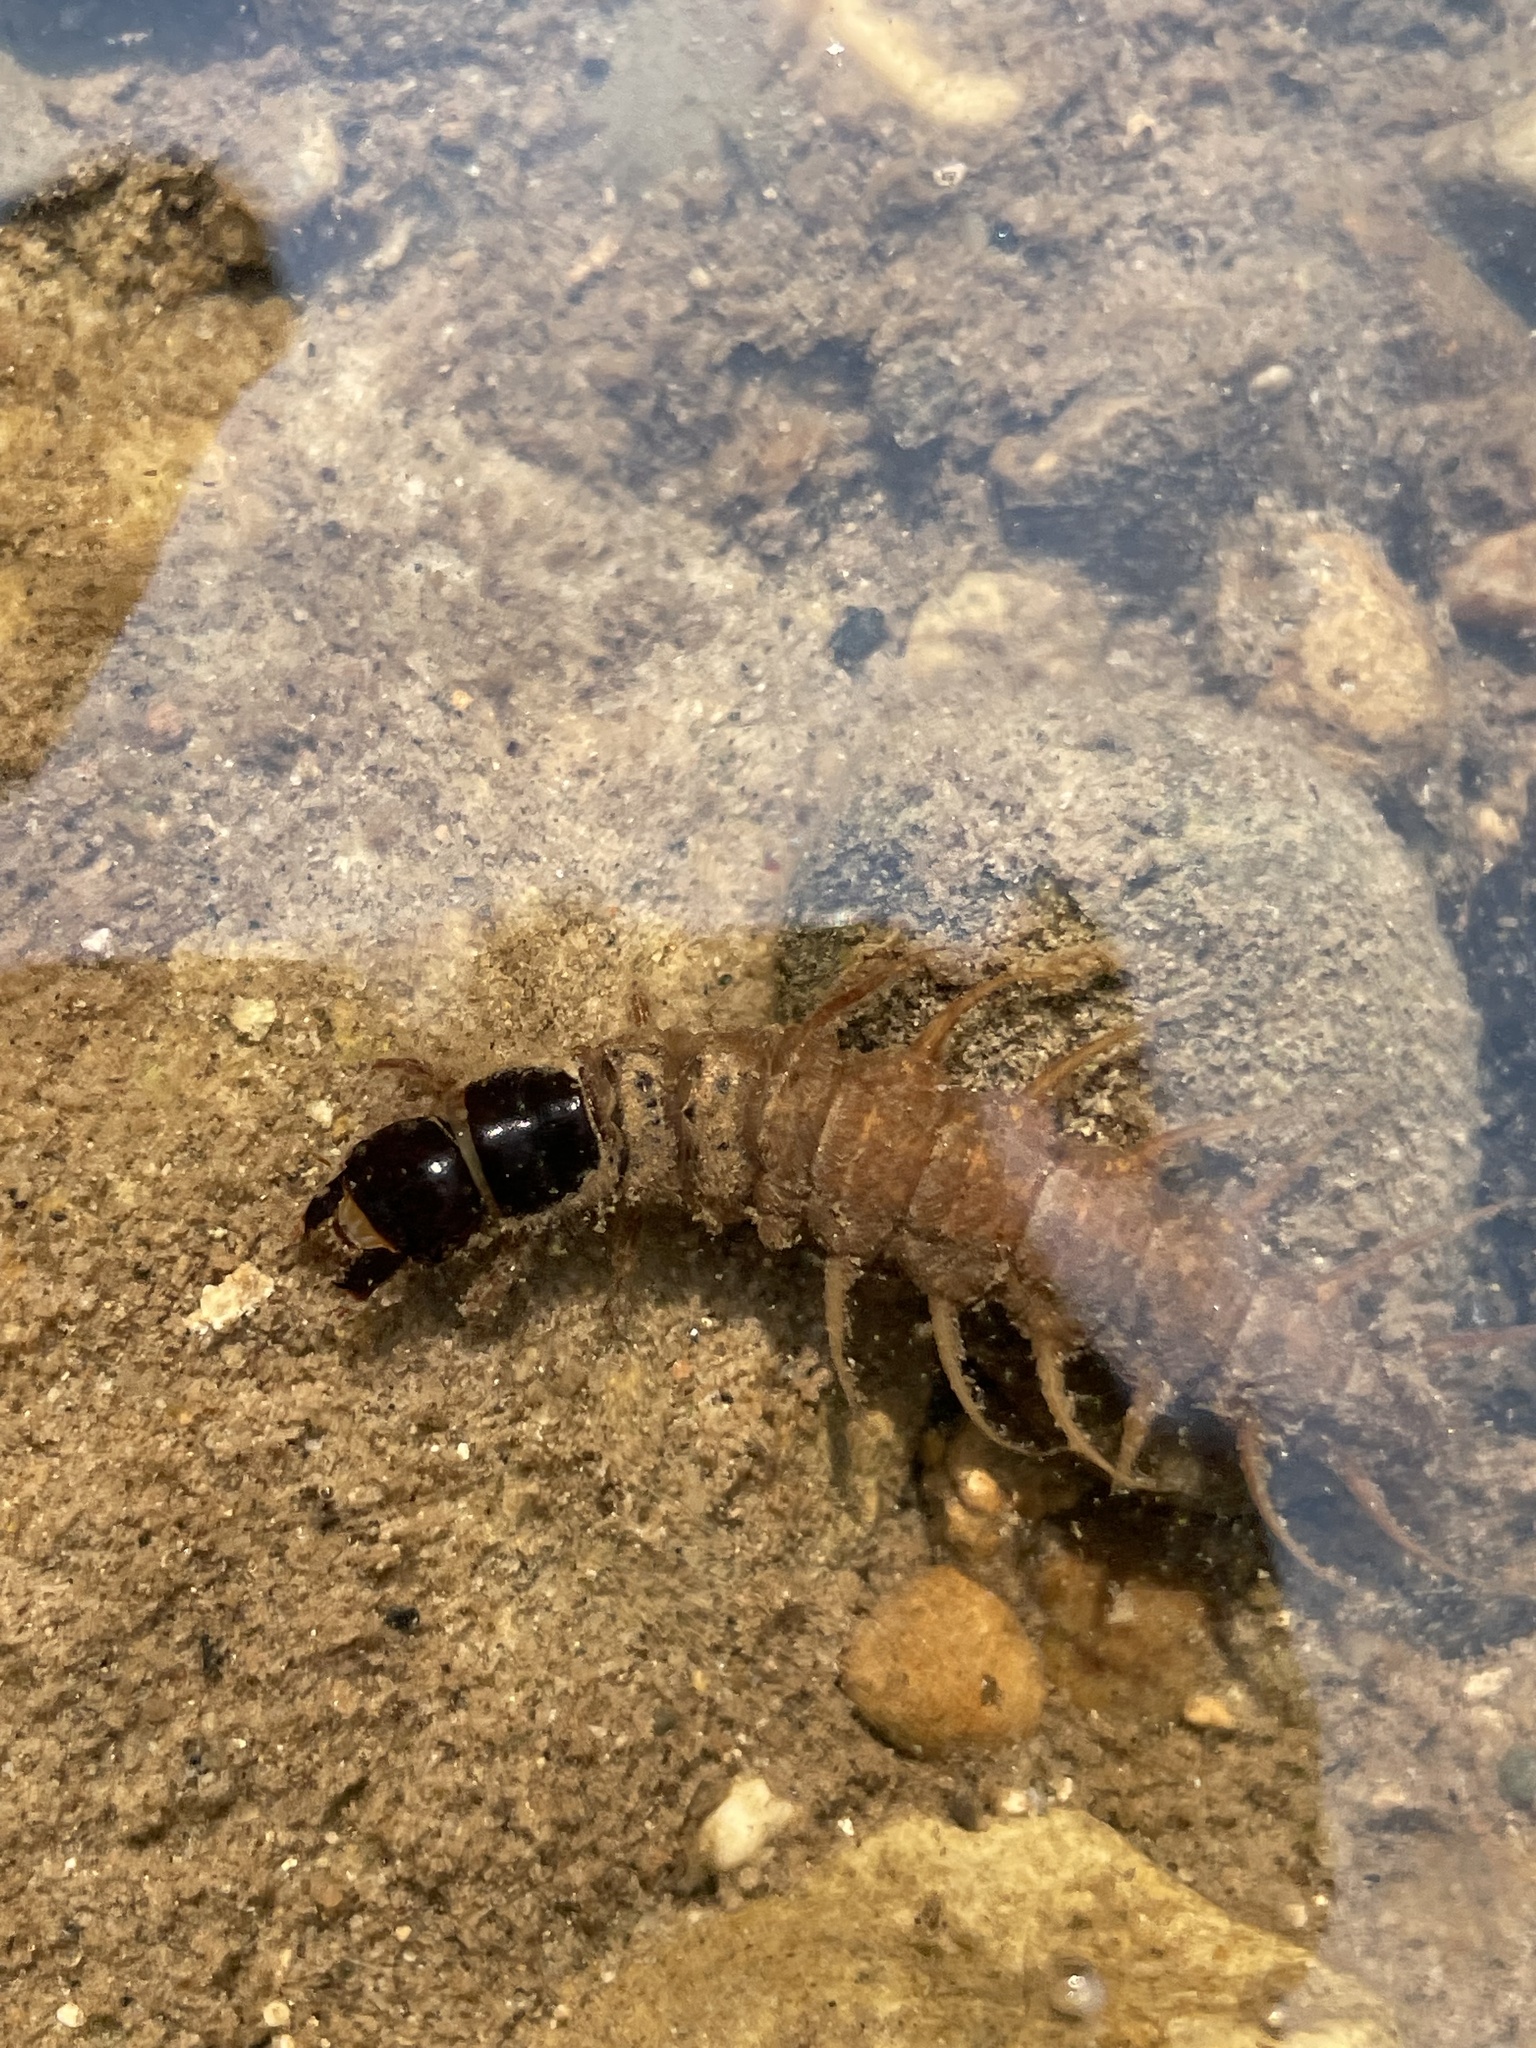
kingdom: Animalia
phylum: Arthropoda
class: Insecta
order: Megaloptera
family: Corydalidae
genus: Nigronia
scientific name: Nigronia serricornis
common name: Serrate dark fishfly
